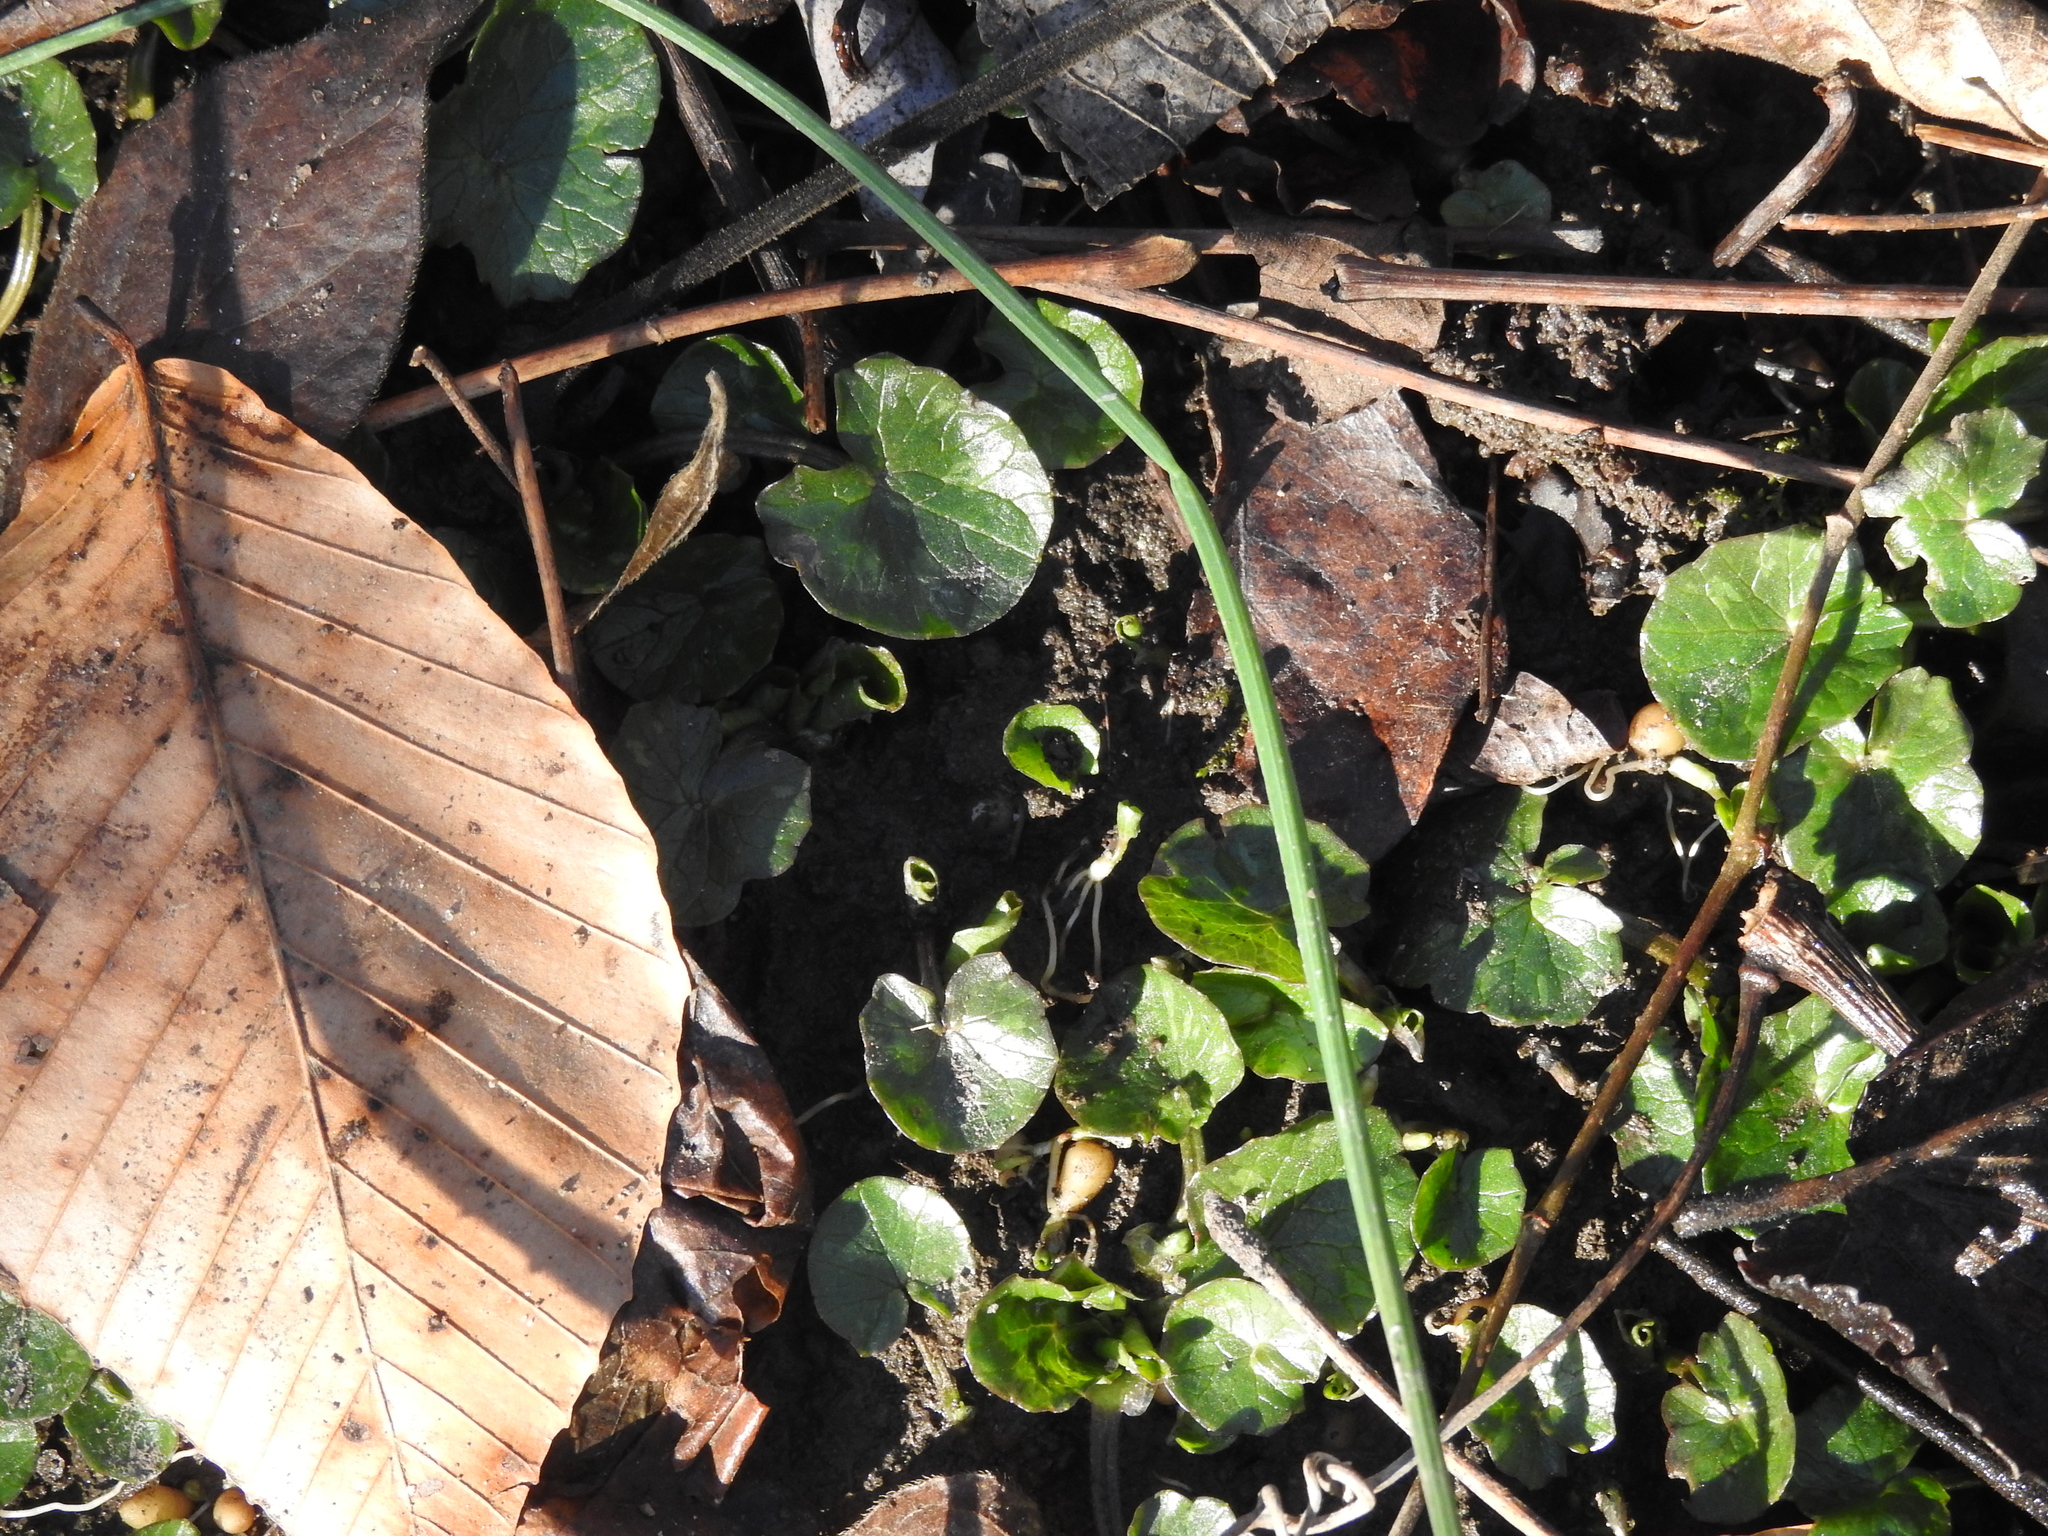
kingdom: Plantae
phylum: Tracheophyta
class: Magnoliopsida
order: Ranunculales
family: Ranunculaceae
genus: Ficaria
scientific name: Ficaria verna
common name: Lesser celandine
